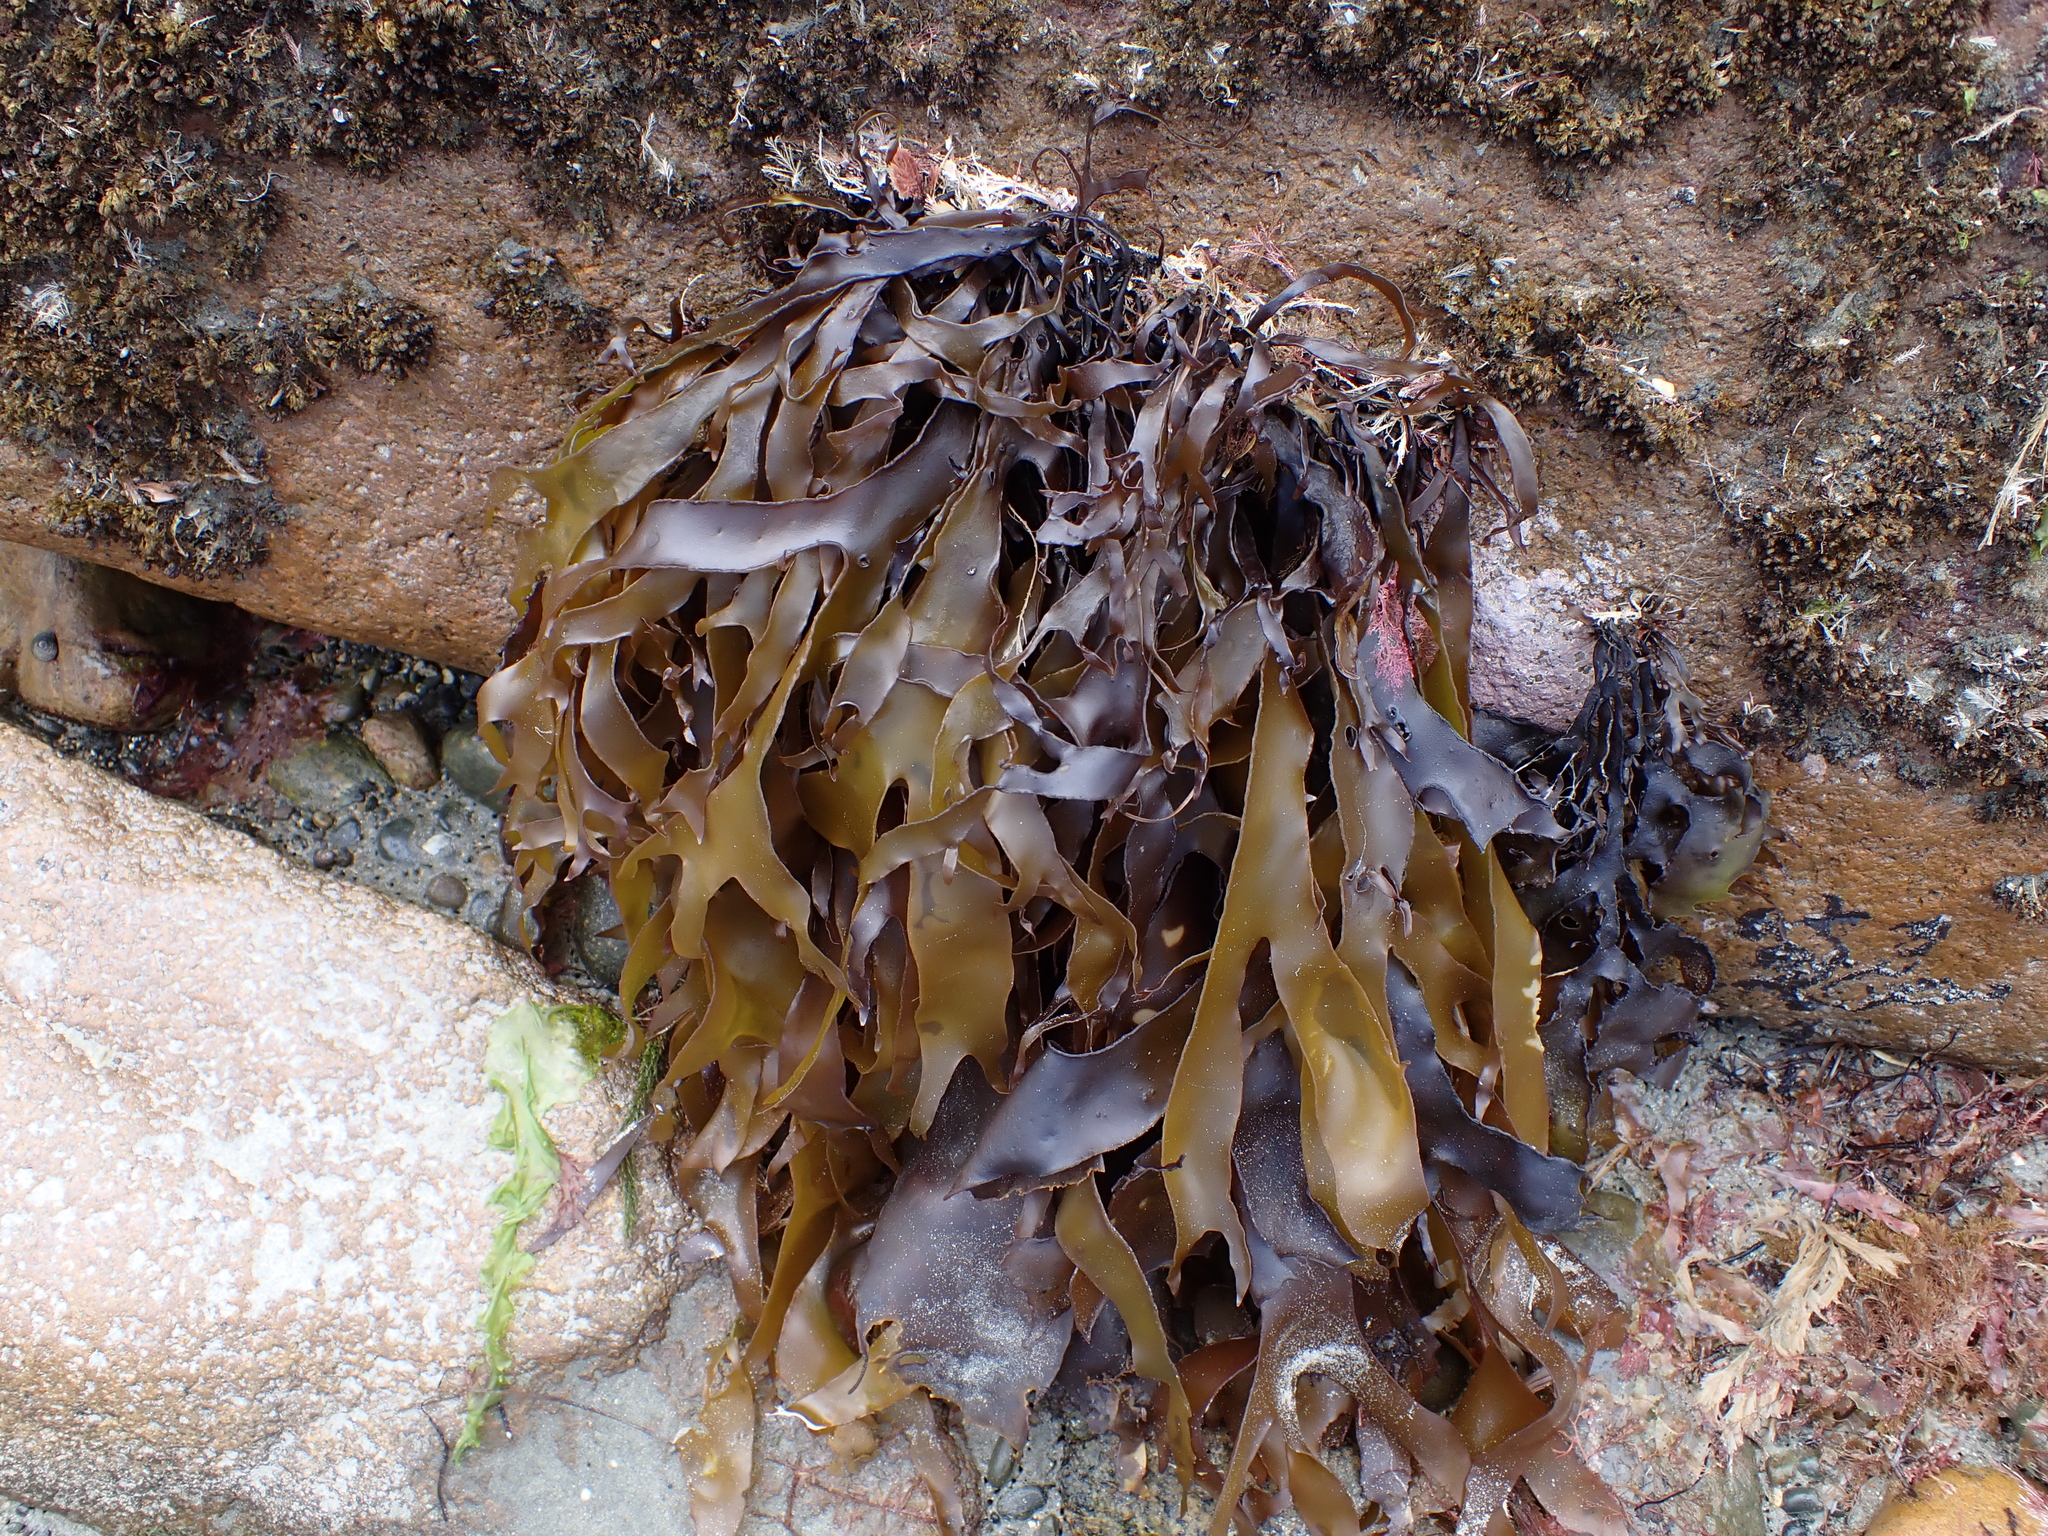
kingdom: Plantae
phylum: Rhodophyta
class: Florideophyceae
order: Halymeniales
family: Halymeniaceae
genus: Pachymenia
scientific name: Pachymenia dichotoma
